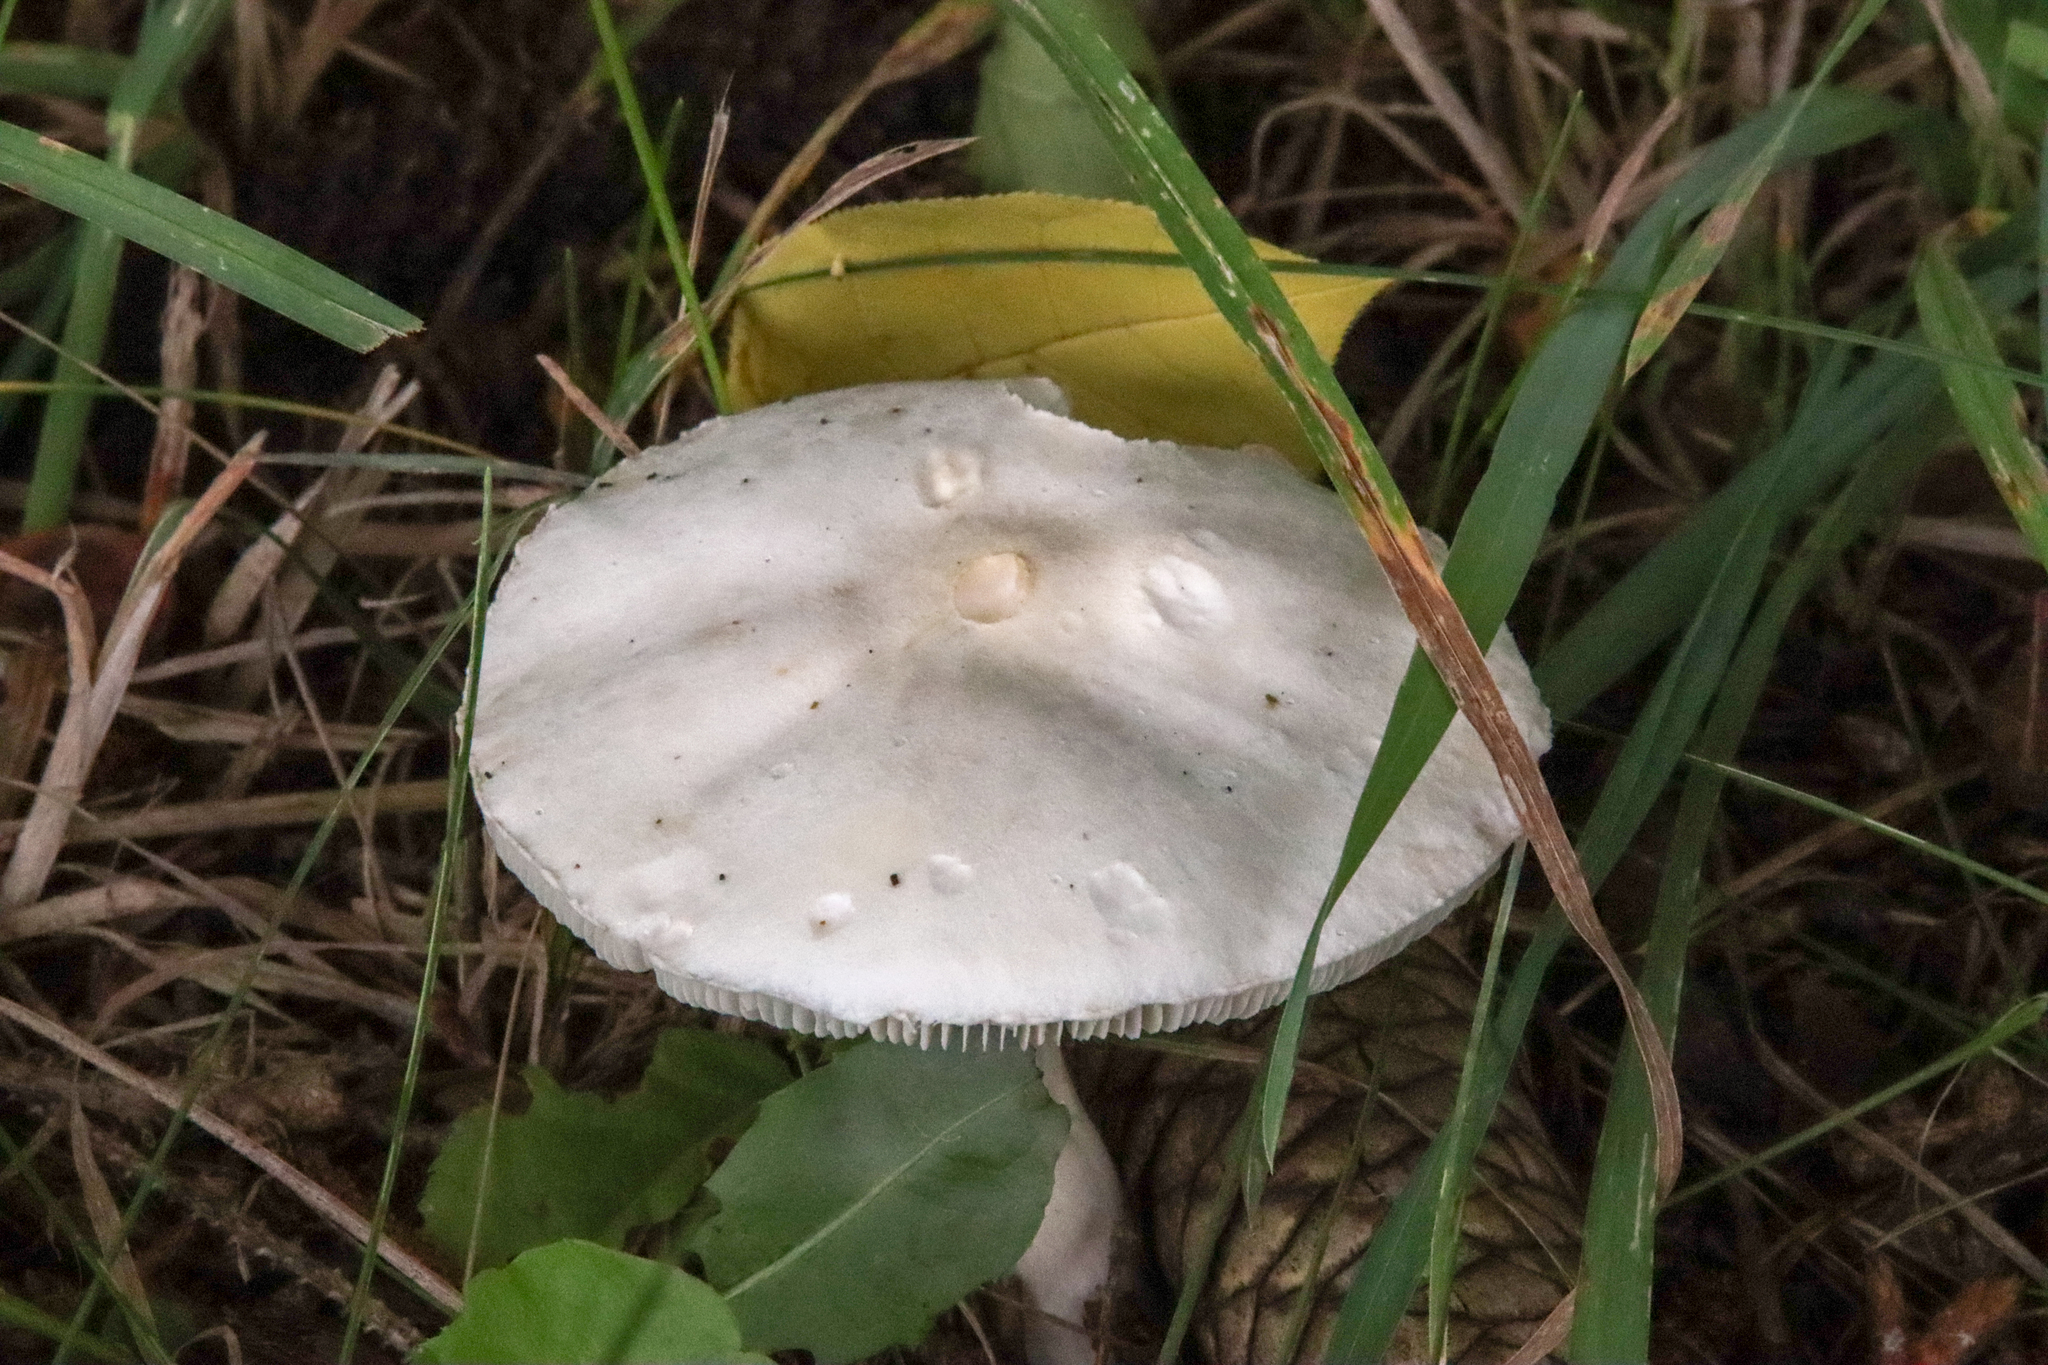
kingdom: Fungi
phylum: Basidiomycota
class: Agaricomycetes
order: Agaricales
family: Agaricaceae
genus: Leucoagaricus
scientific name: Leucoagaricus leucothites
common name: White dapperling
